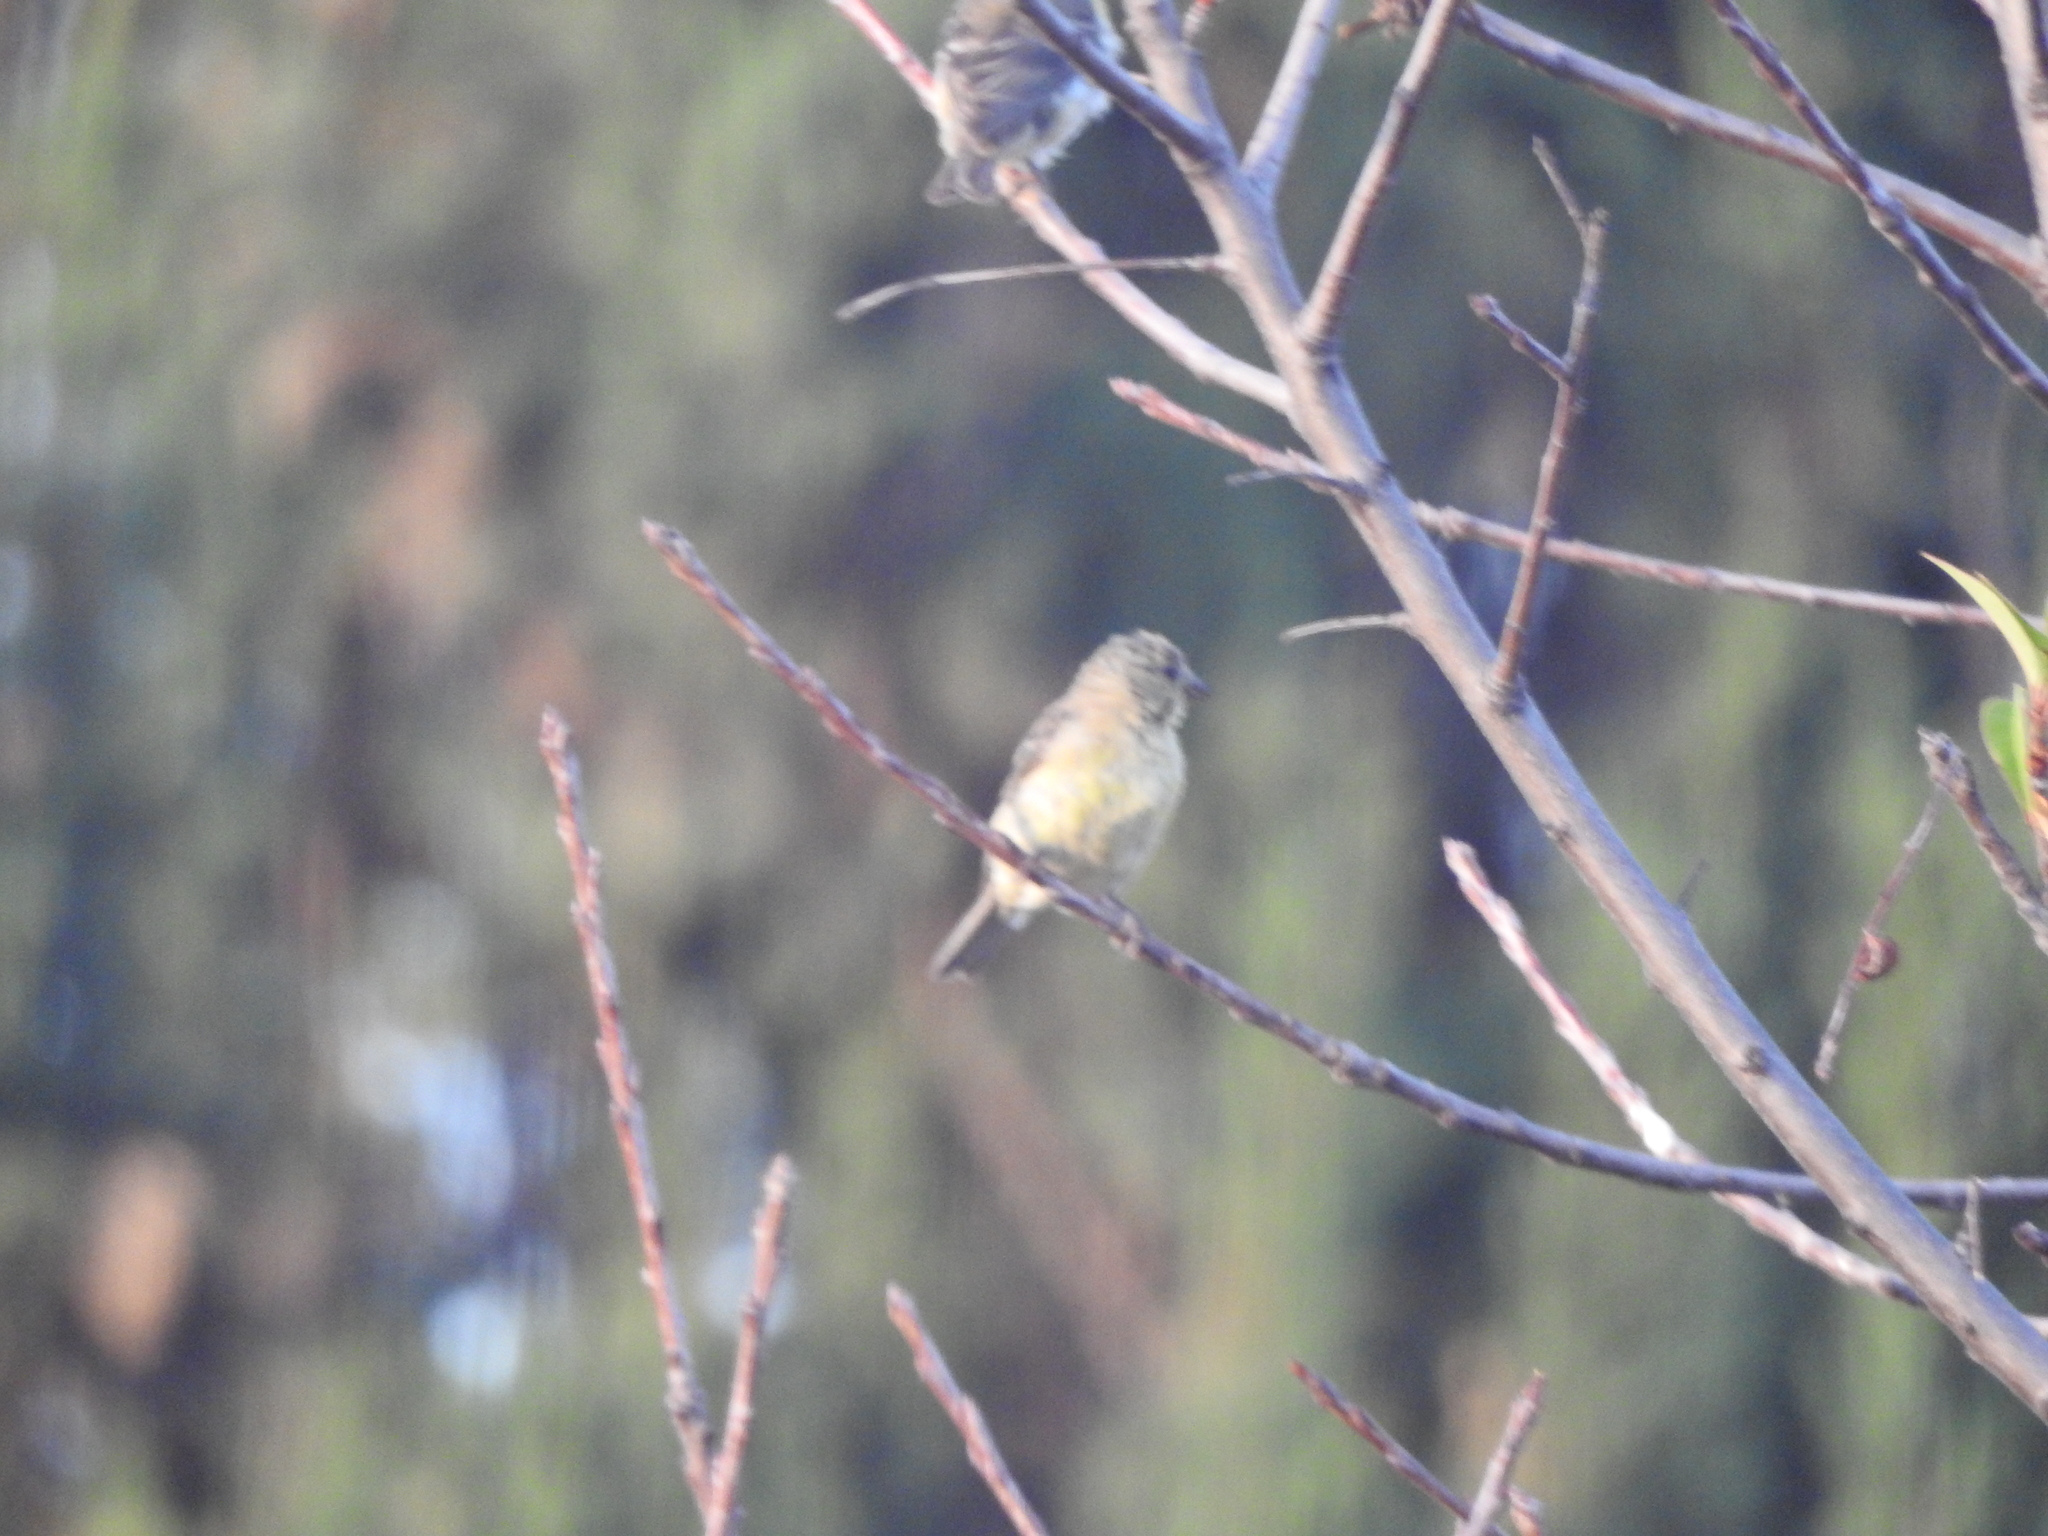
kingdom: Animalia
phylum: Chordata
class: Aves
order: Passeriformes
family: Fringillidae
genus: Spinus
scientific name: Spinus psaltria
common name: Lesser goldfinch
